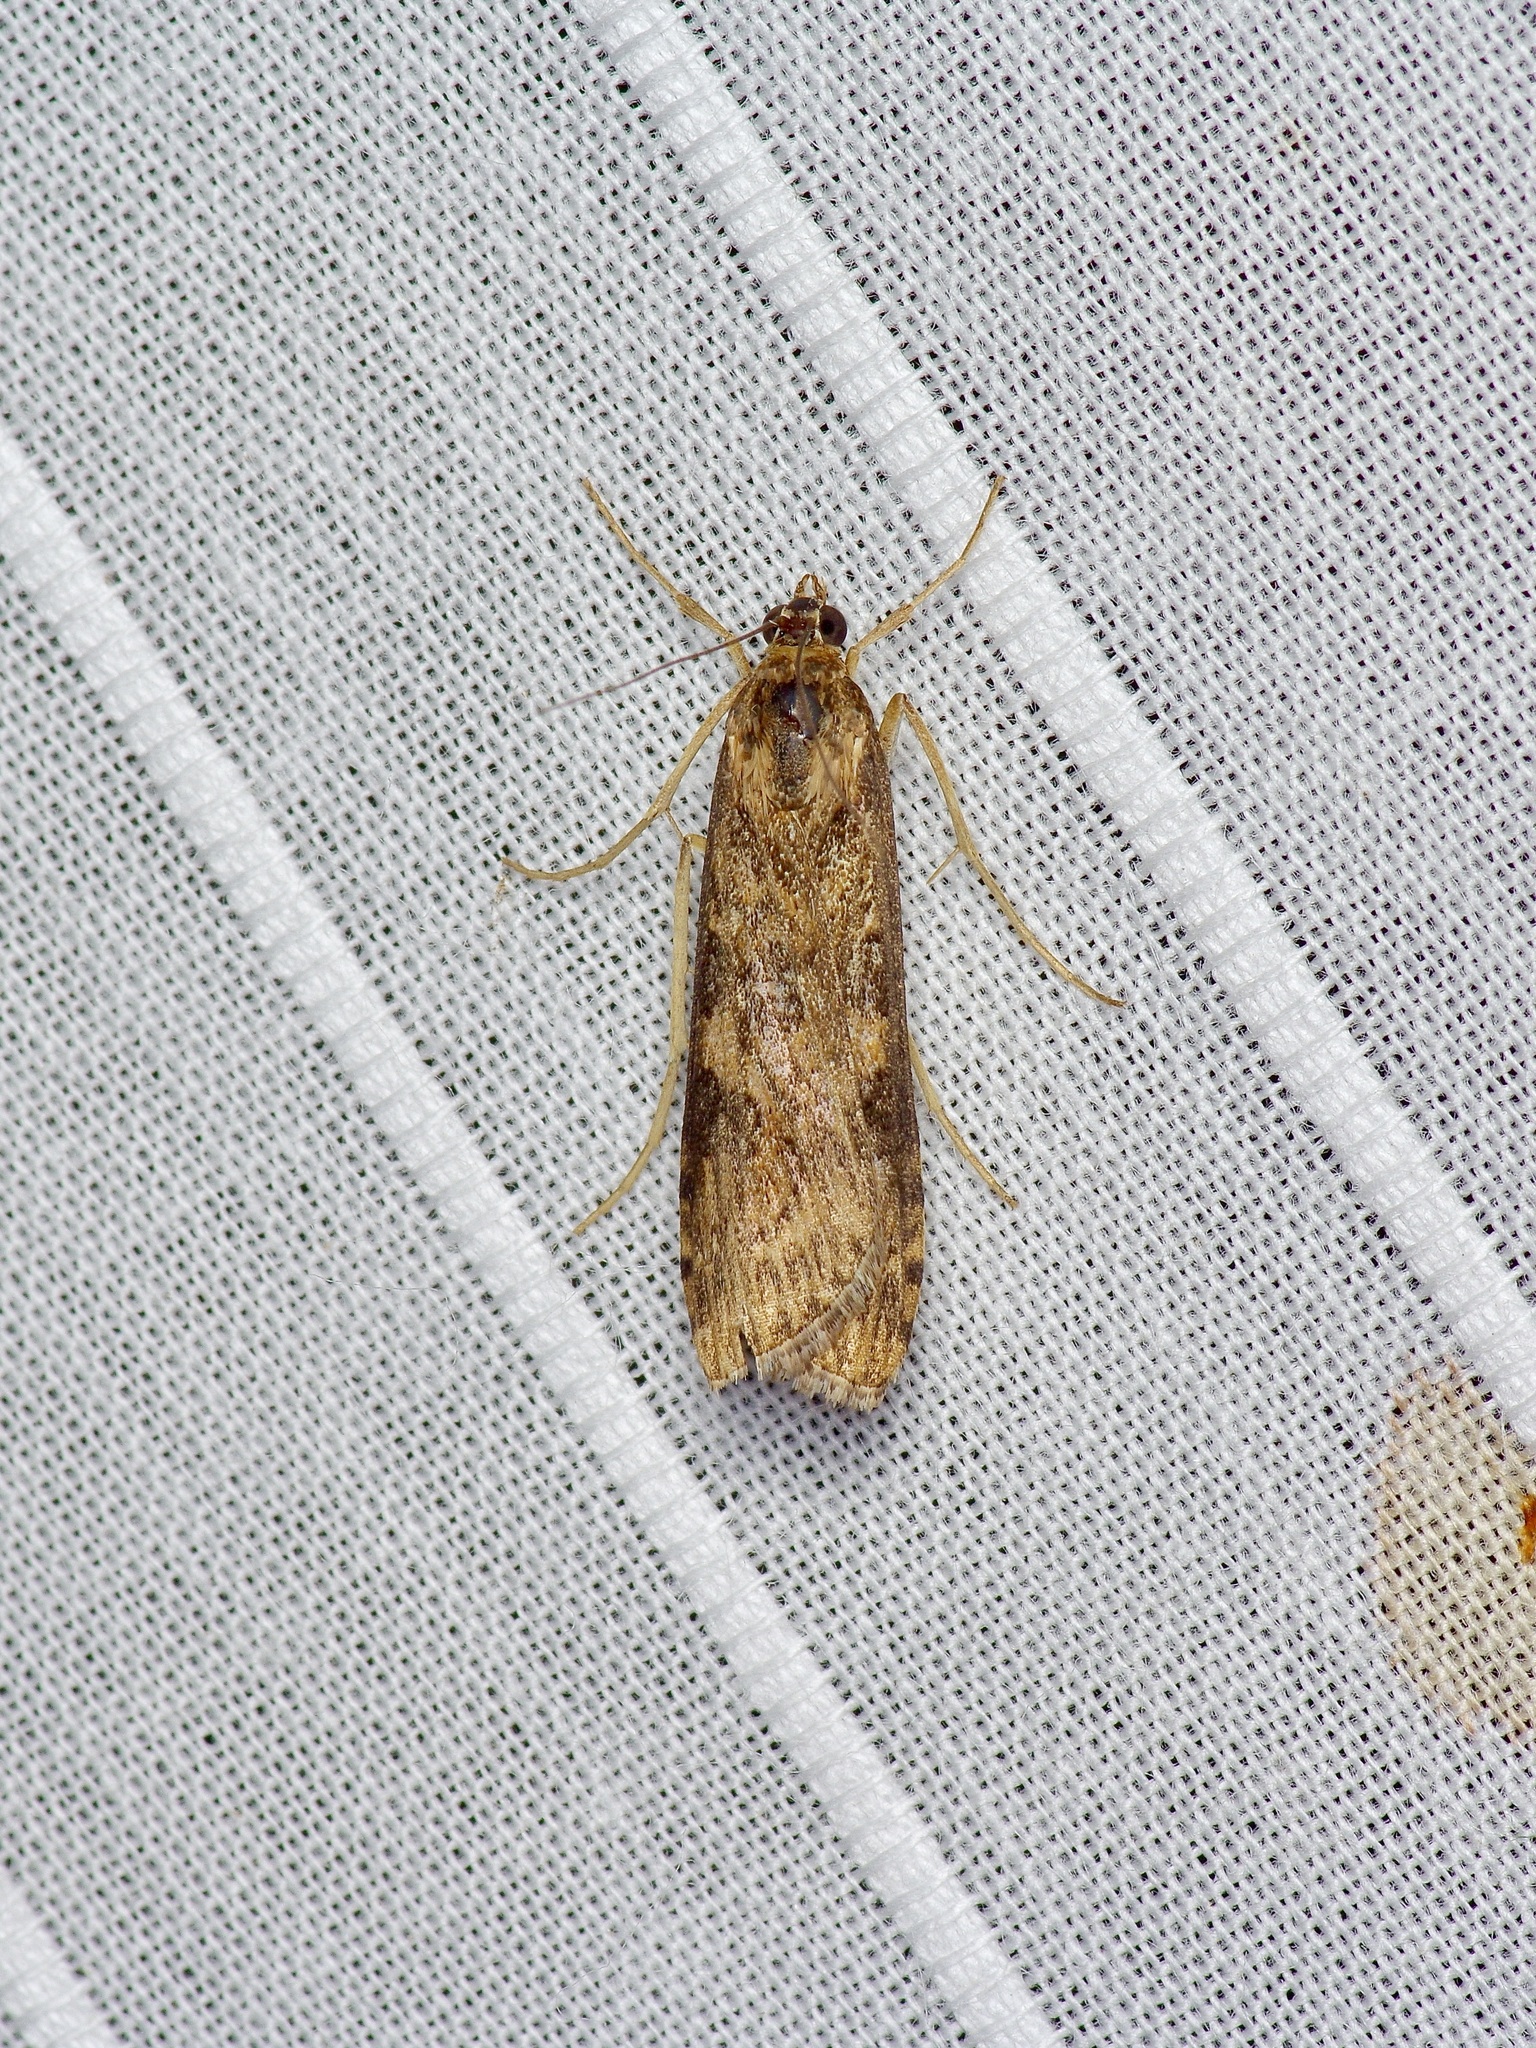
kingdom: Animalia
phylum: Arthropoda
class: Insecta
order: Lepidoptera
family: Crambidae
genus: Nomophila
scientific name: Nomophila nearctica
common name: American rush veneer
